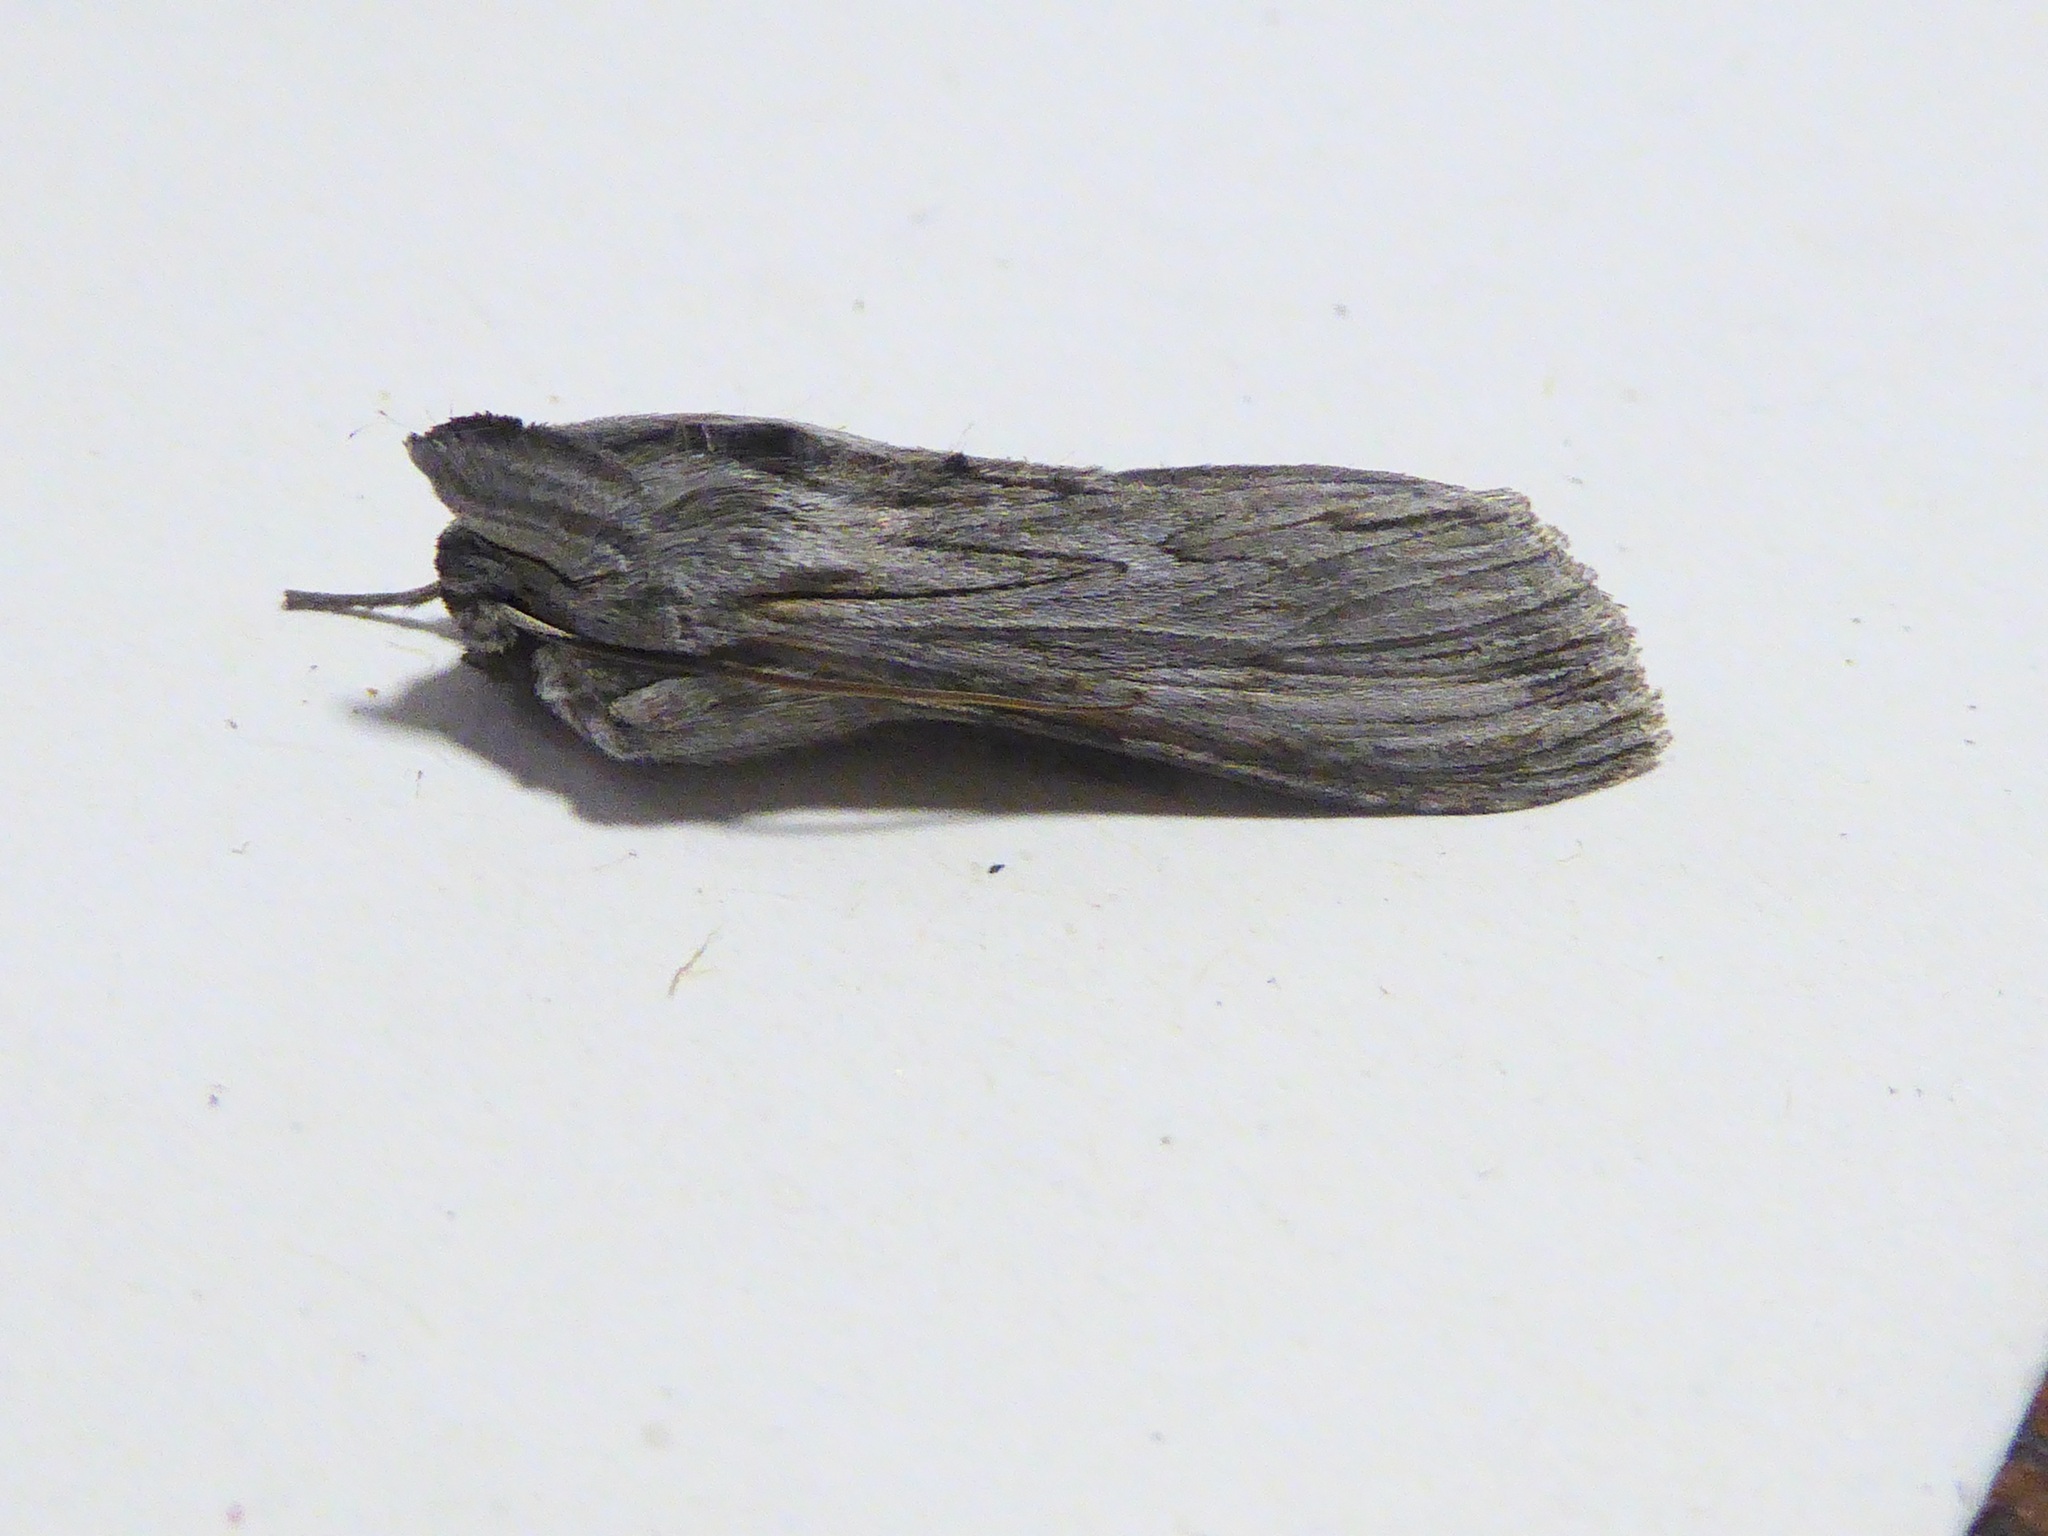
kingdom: Animalia
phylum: Arthropoda
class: Insecta
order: Lepidoptera
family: Noctuidae
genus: Cucullia
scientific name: Cucullia calendulae
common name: Marigold shark
